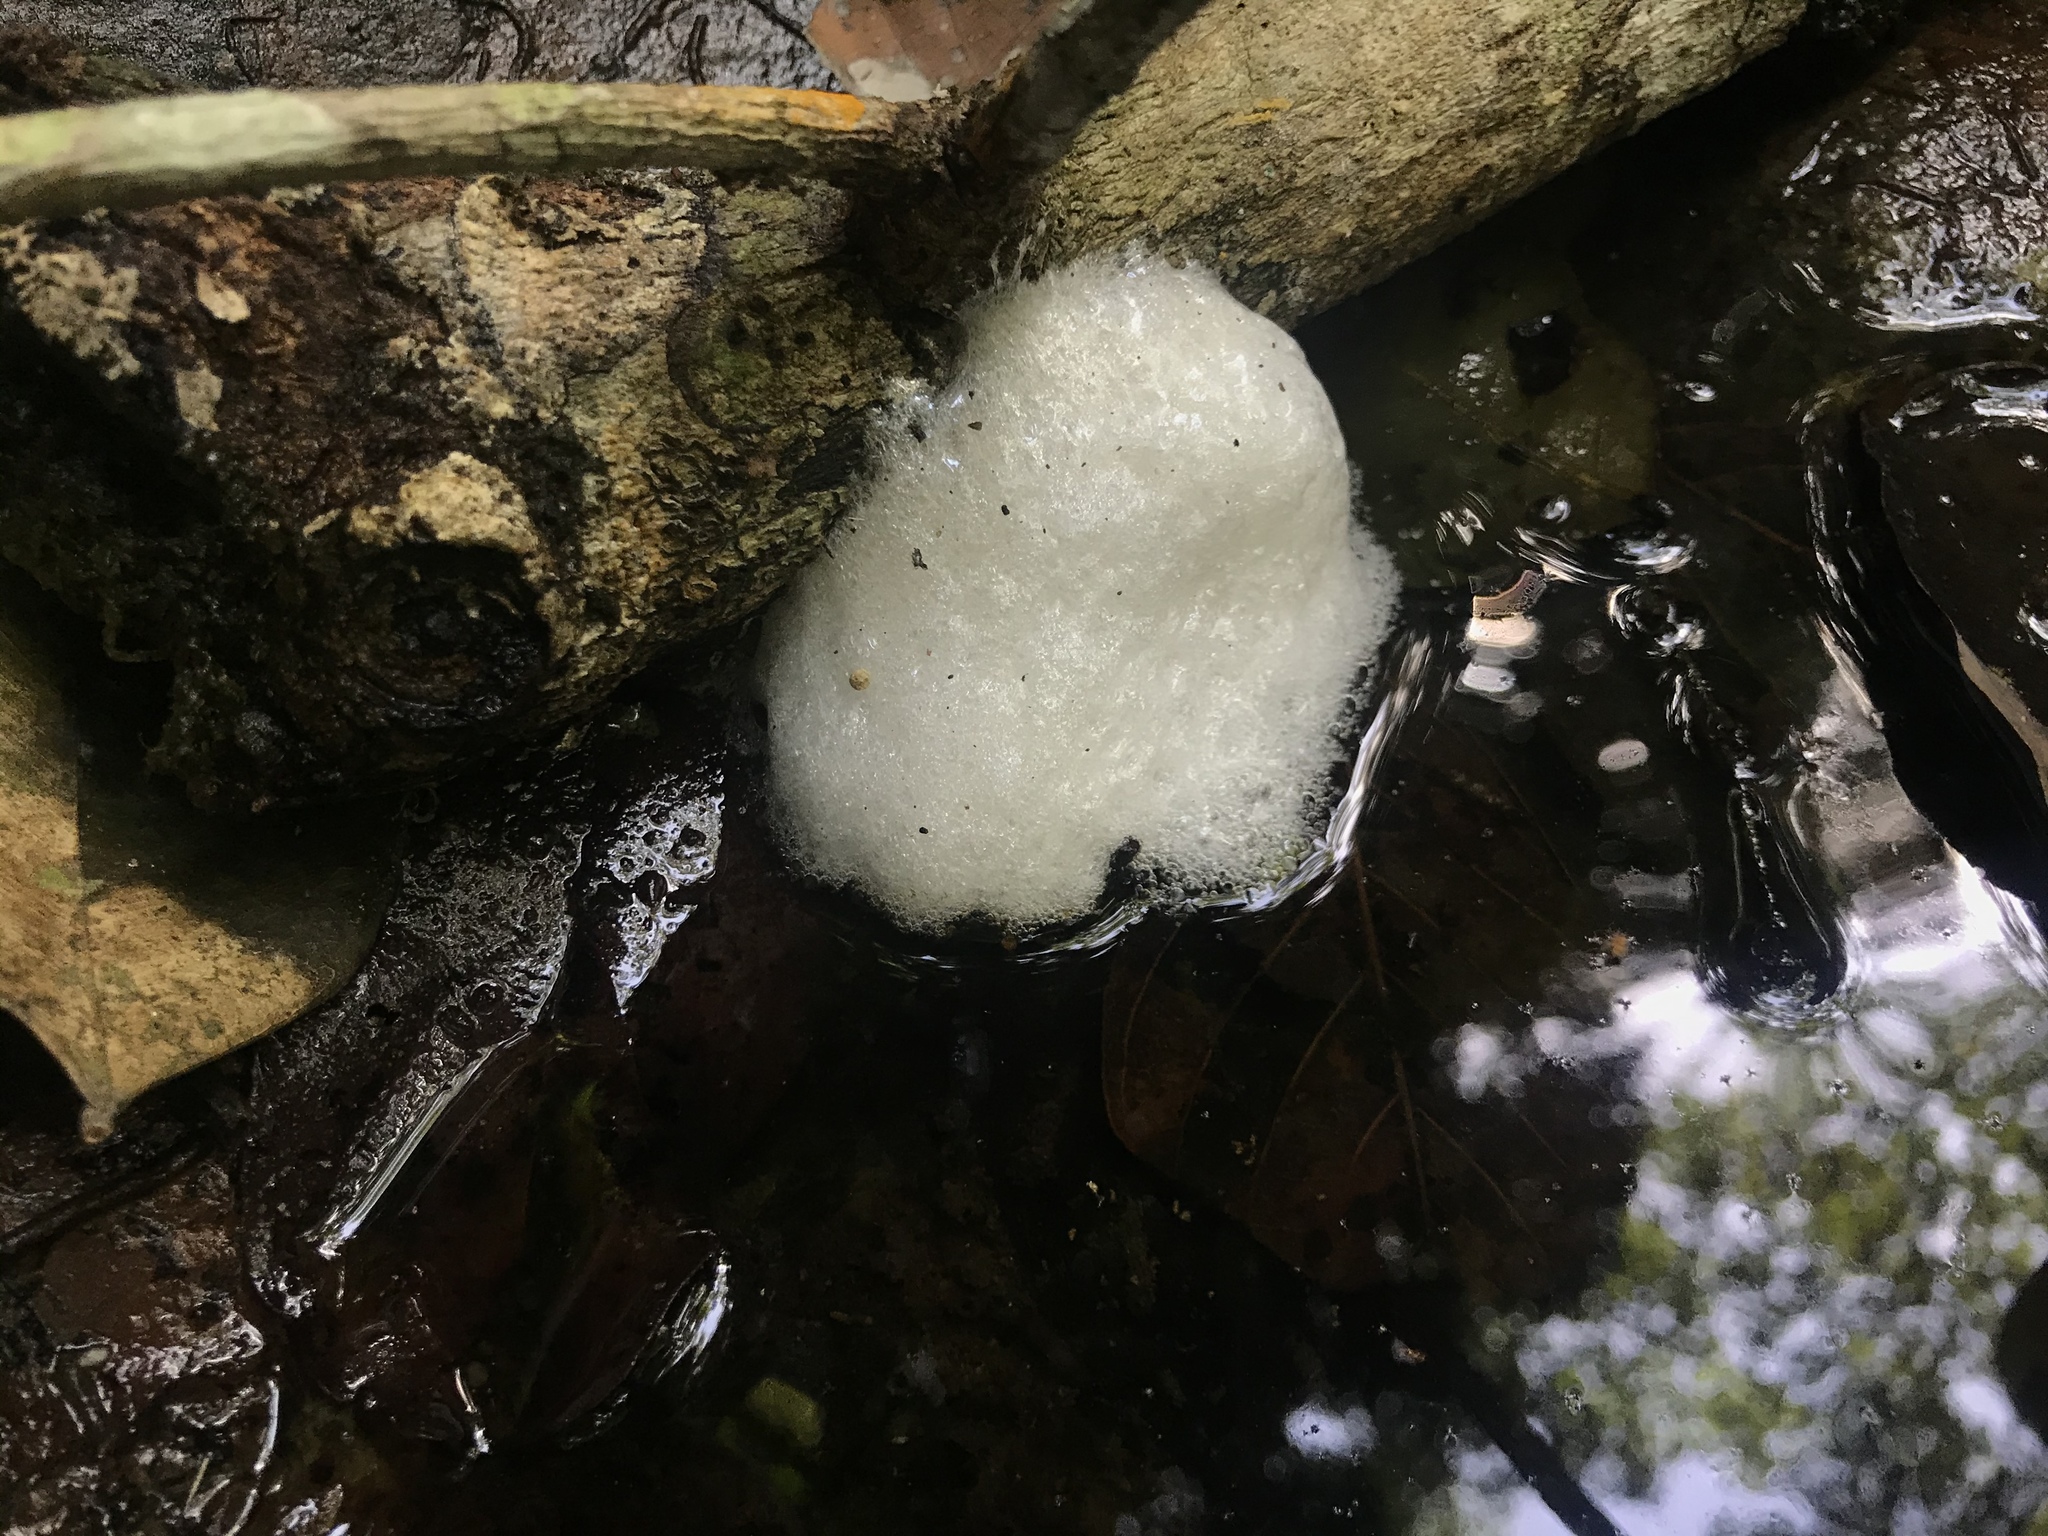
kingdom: Animalia
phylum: Chordata
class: Amphibia
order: Anura
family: Leptodactylidae
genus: Engystomops
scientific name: Engystomops pustulosus
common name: Tungara frog
